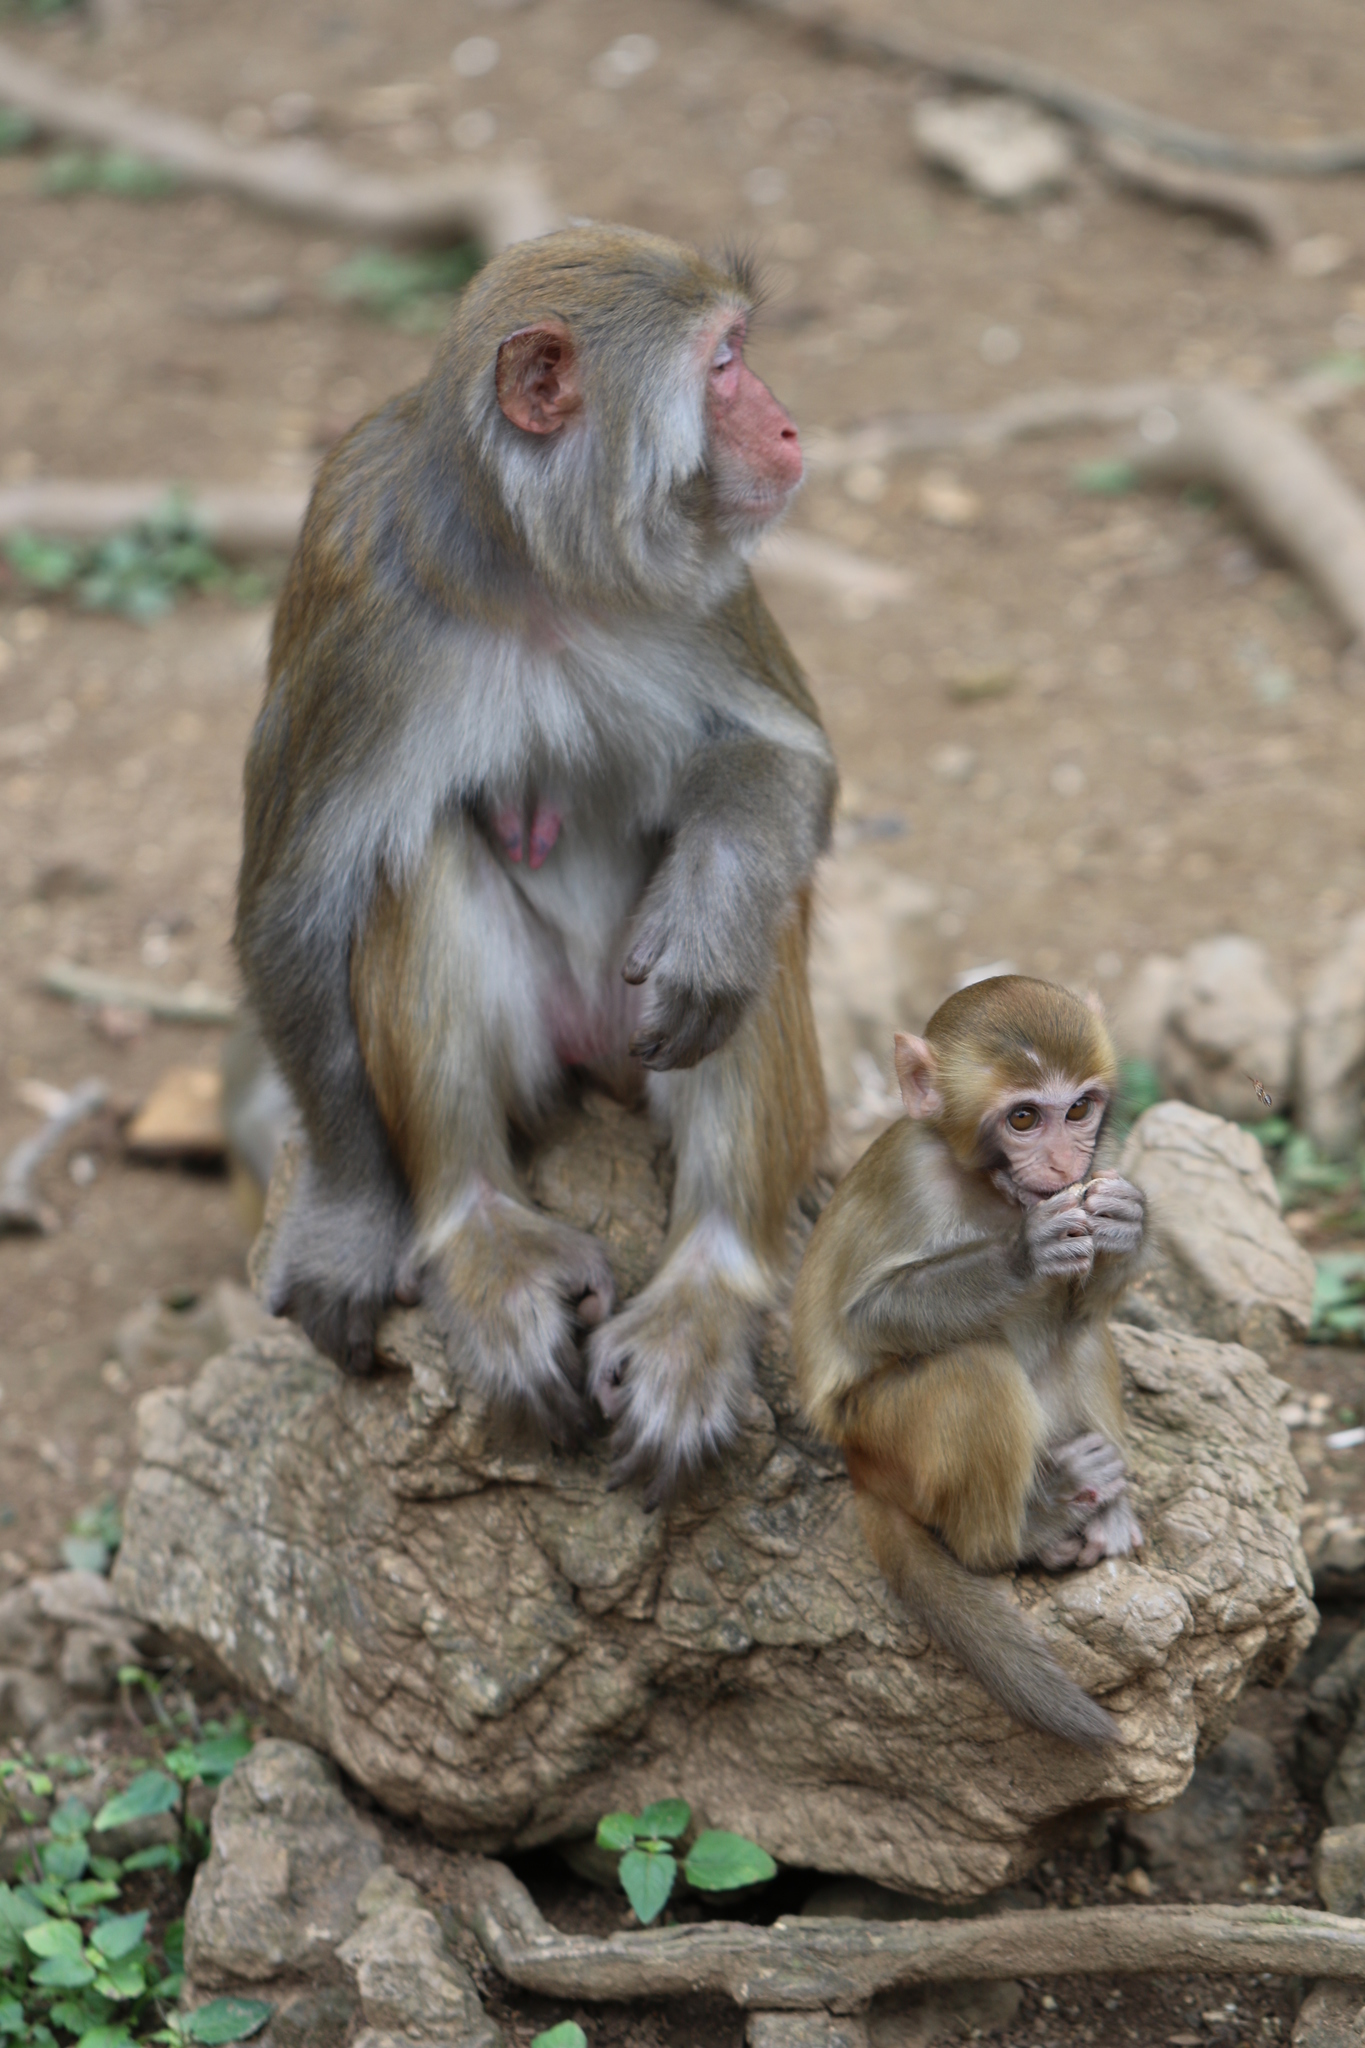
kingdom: Animalia
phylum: Chordata
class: Mammalia
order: Primates
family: Cercopithecidae
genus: Macaca
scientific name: Macaca mulatta
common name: Rhesus monkey
